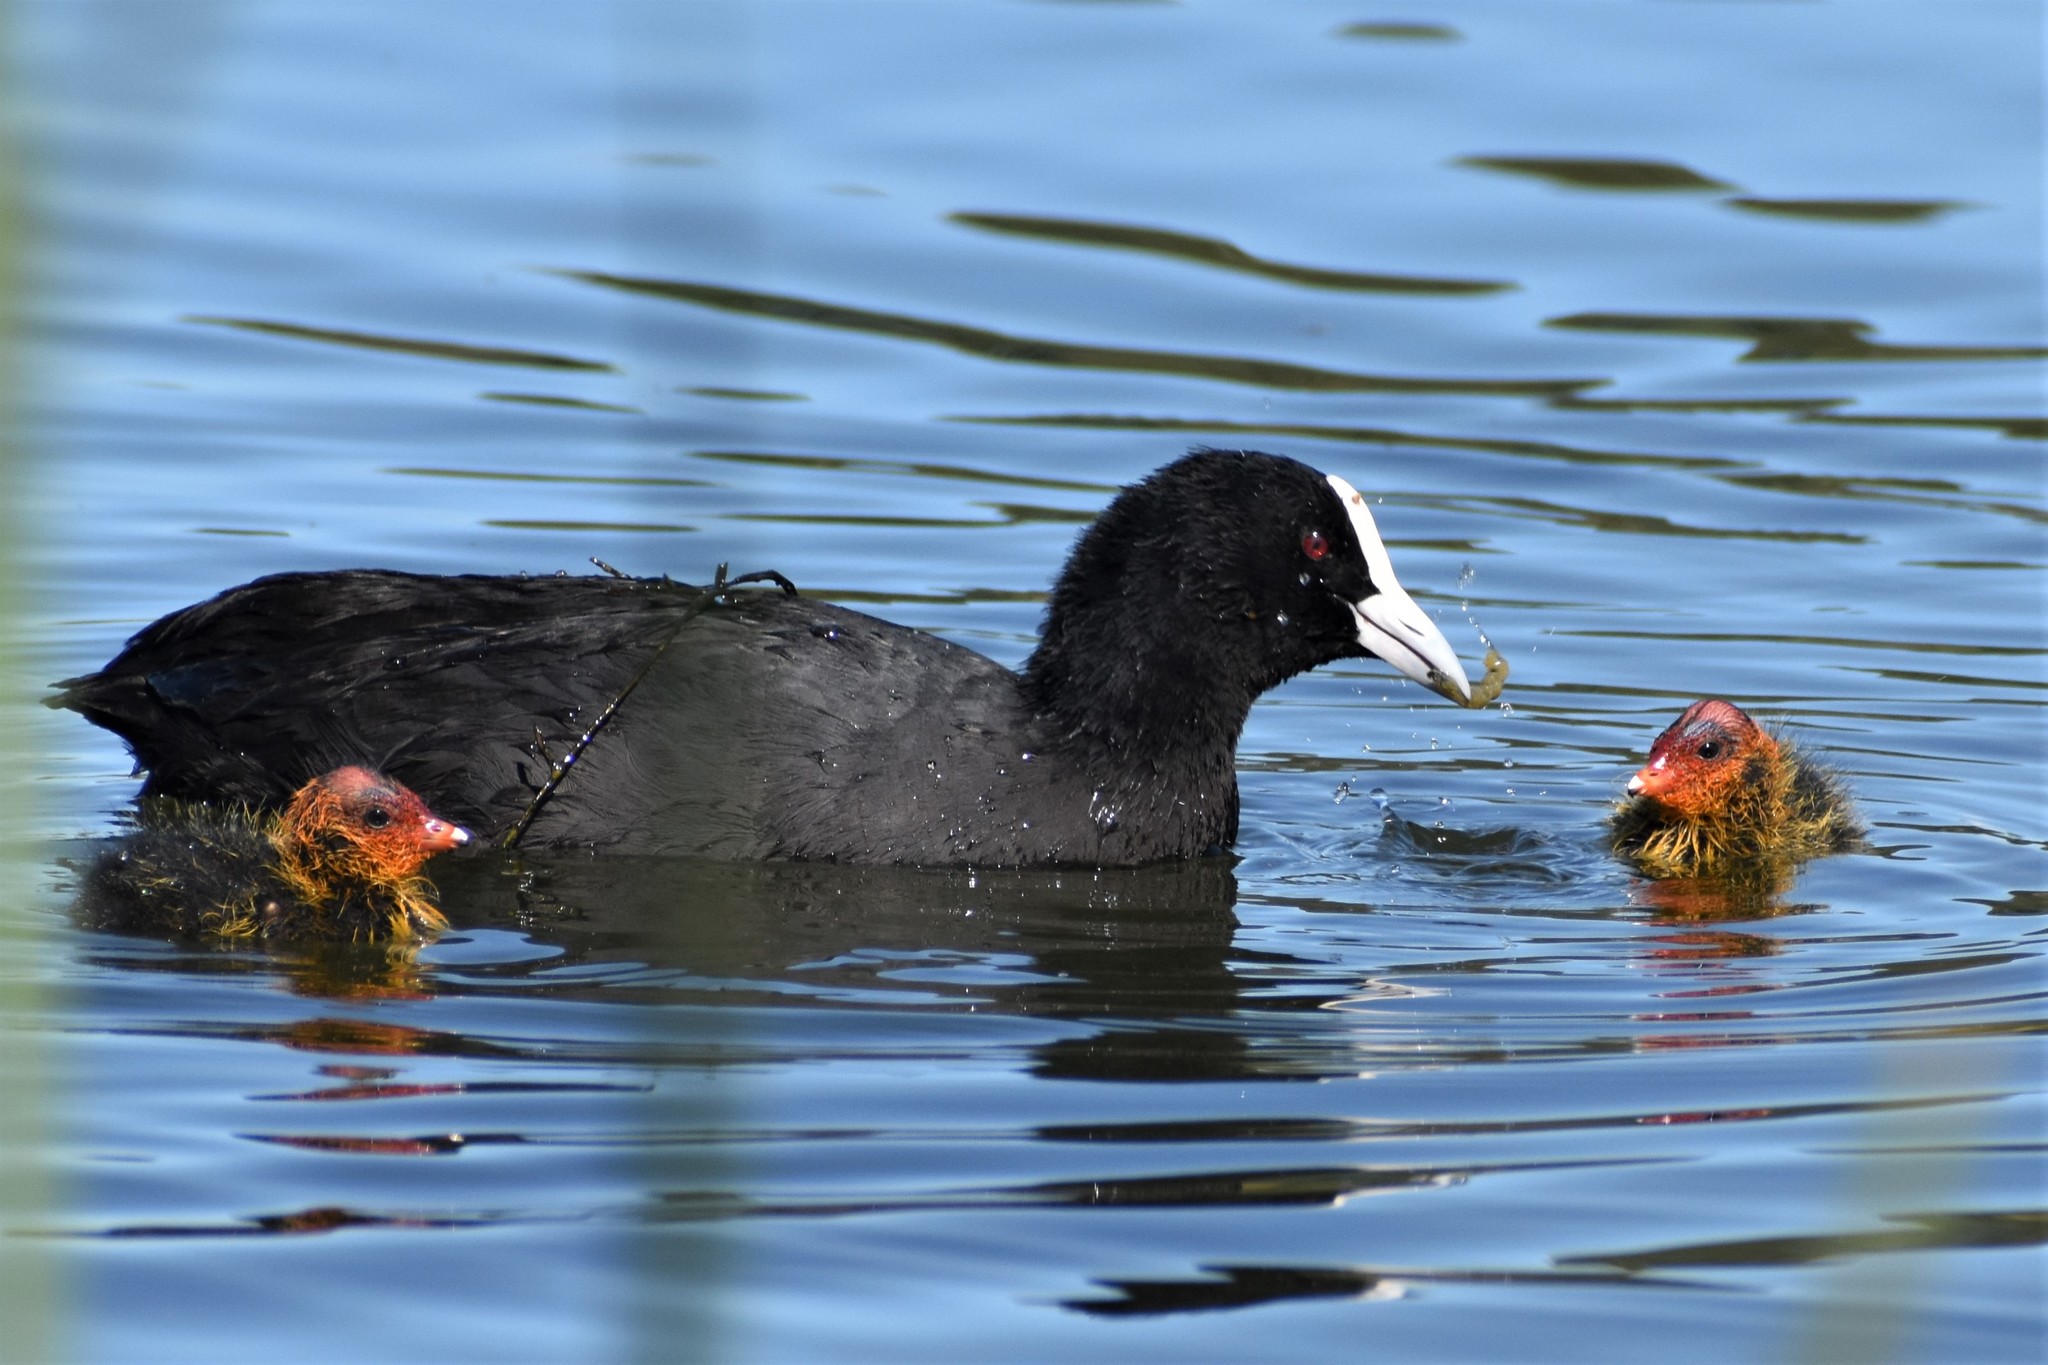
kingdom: Animalia
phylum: Chordata
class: Aves
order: Gruiformes
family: Rallidae
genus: Fulica
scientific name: Fulica atra
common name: Eurasian coot
